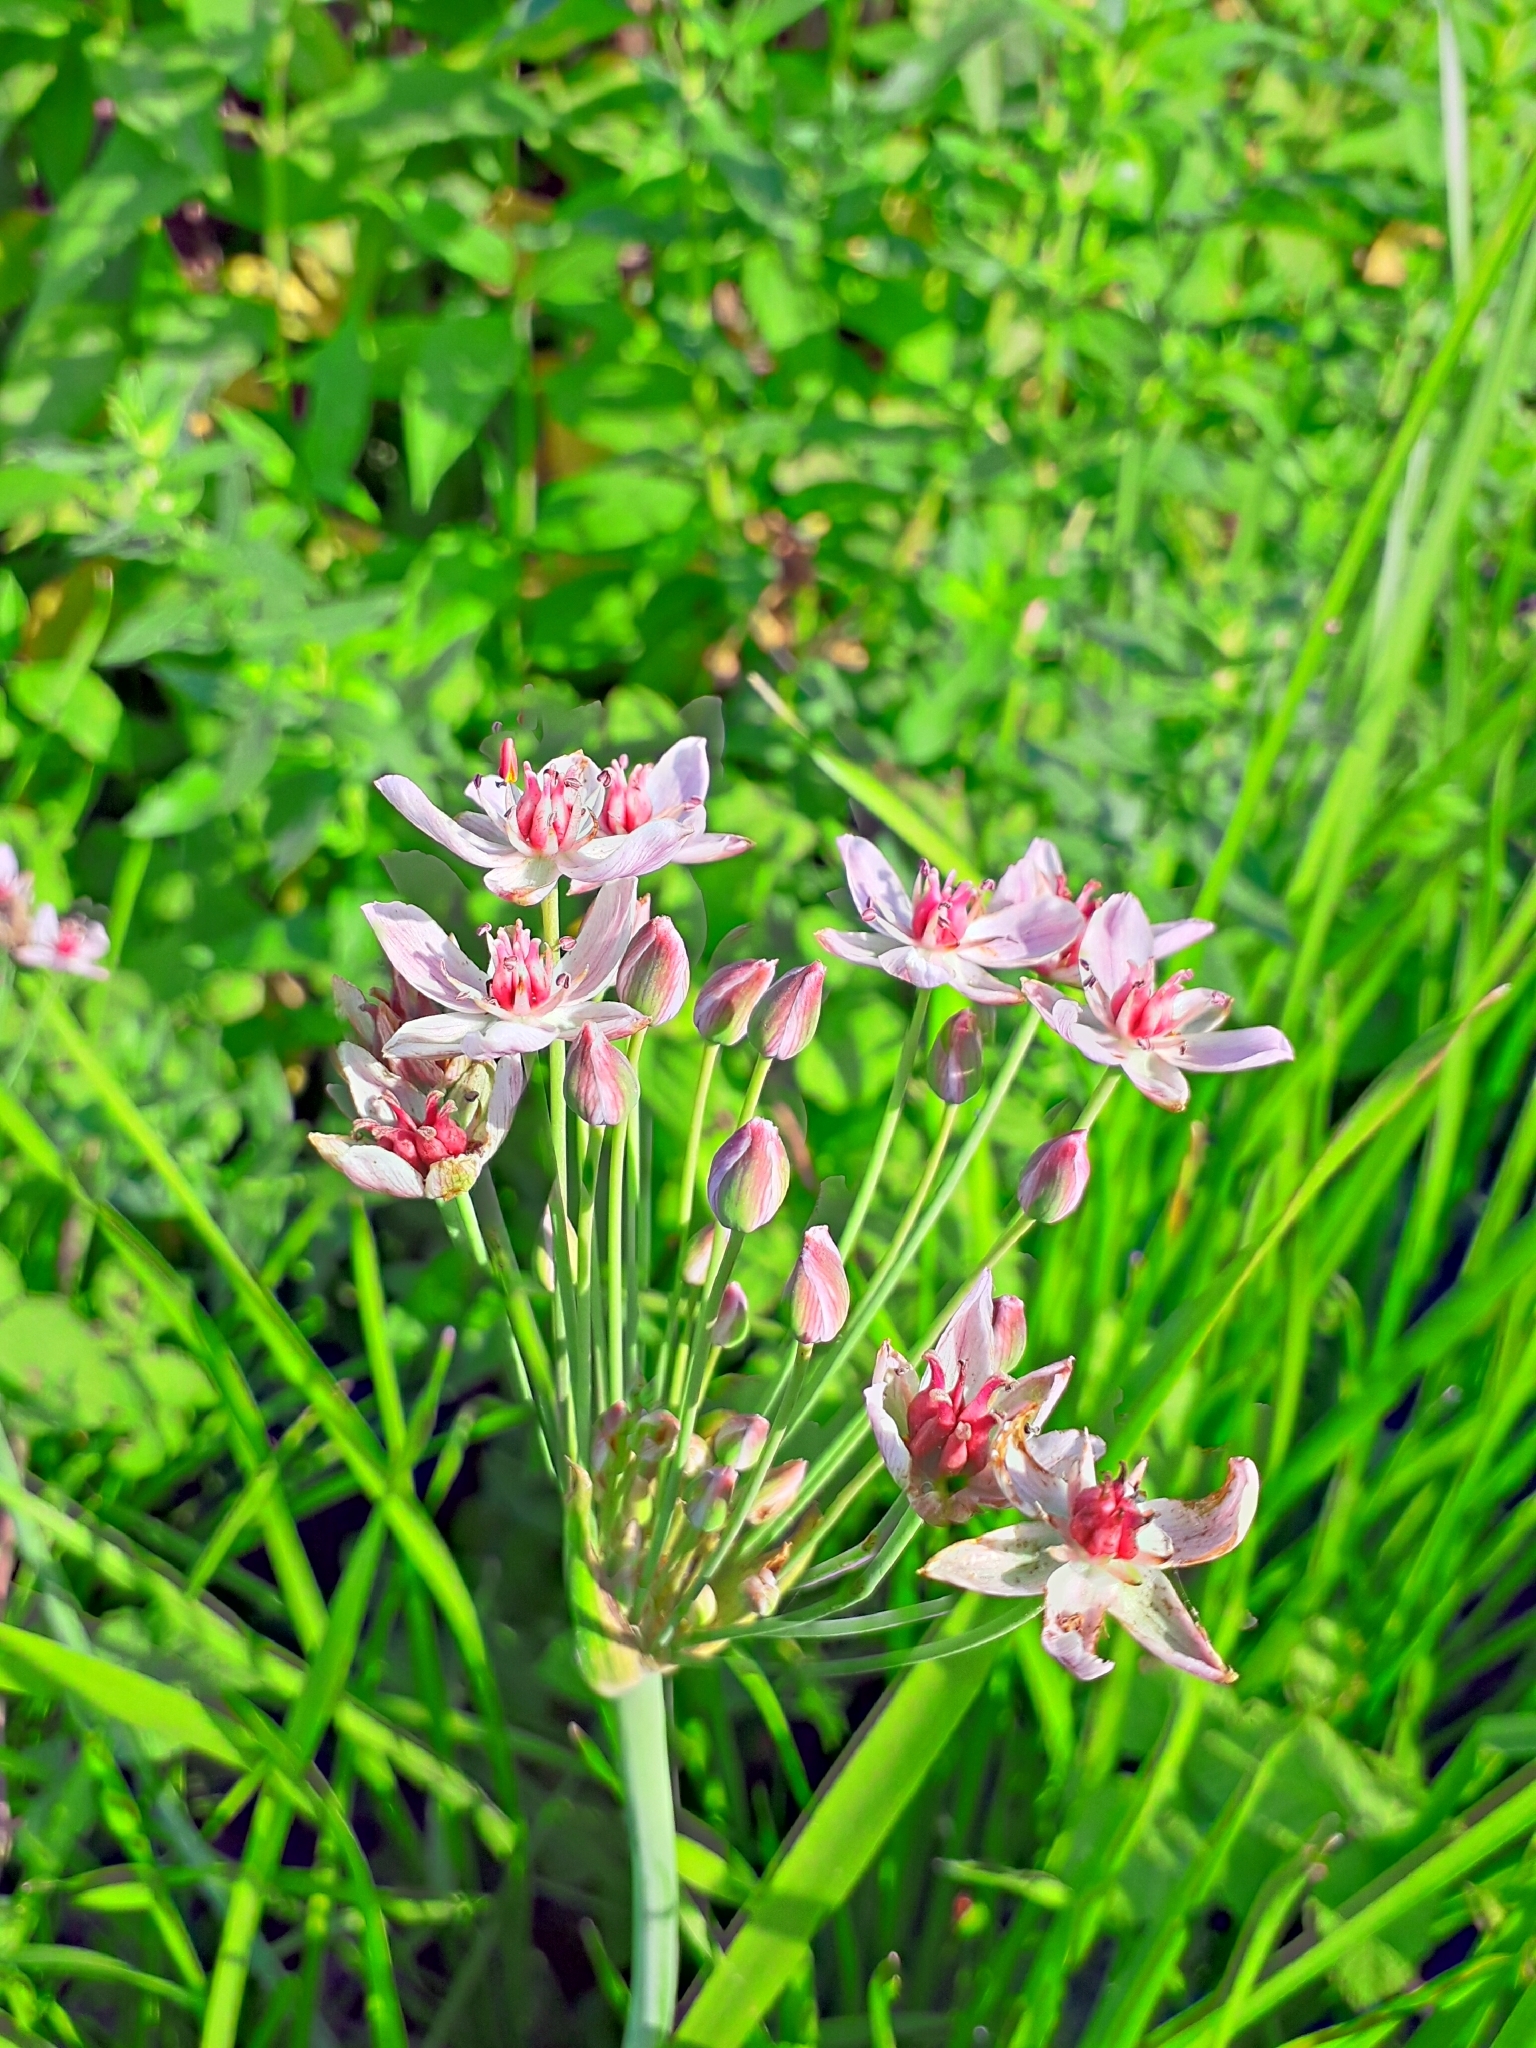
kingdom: Plantae
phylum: Tracheophyta
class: Liliopsida
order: Alismatales
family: Butomaceae
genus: Butomus
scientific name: Butomus umbellatus
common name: Flowering-rush
